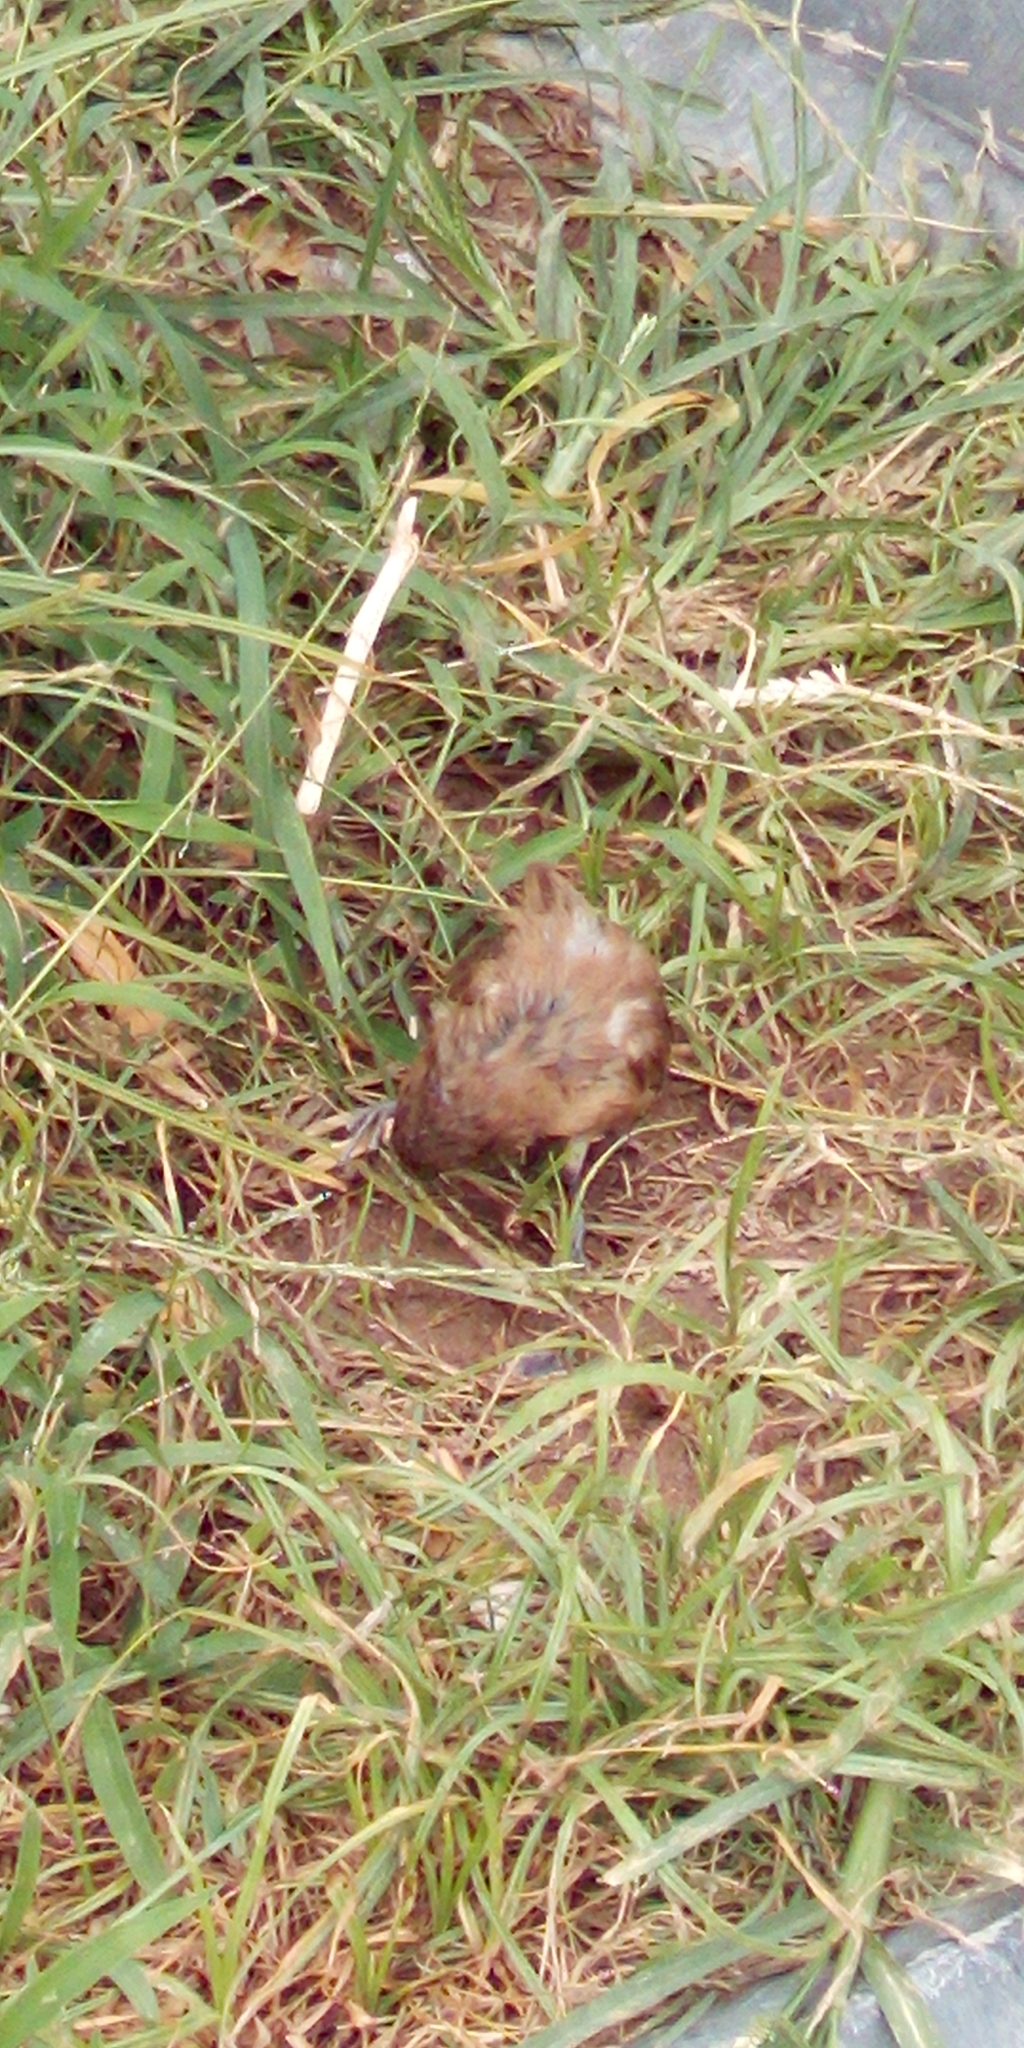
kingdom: Animalia
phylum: Chordata
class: Aves
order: Passeriformes
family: Estrildidae
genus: Lonchura
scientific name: Lonchura
